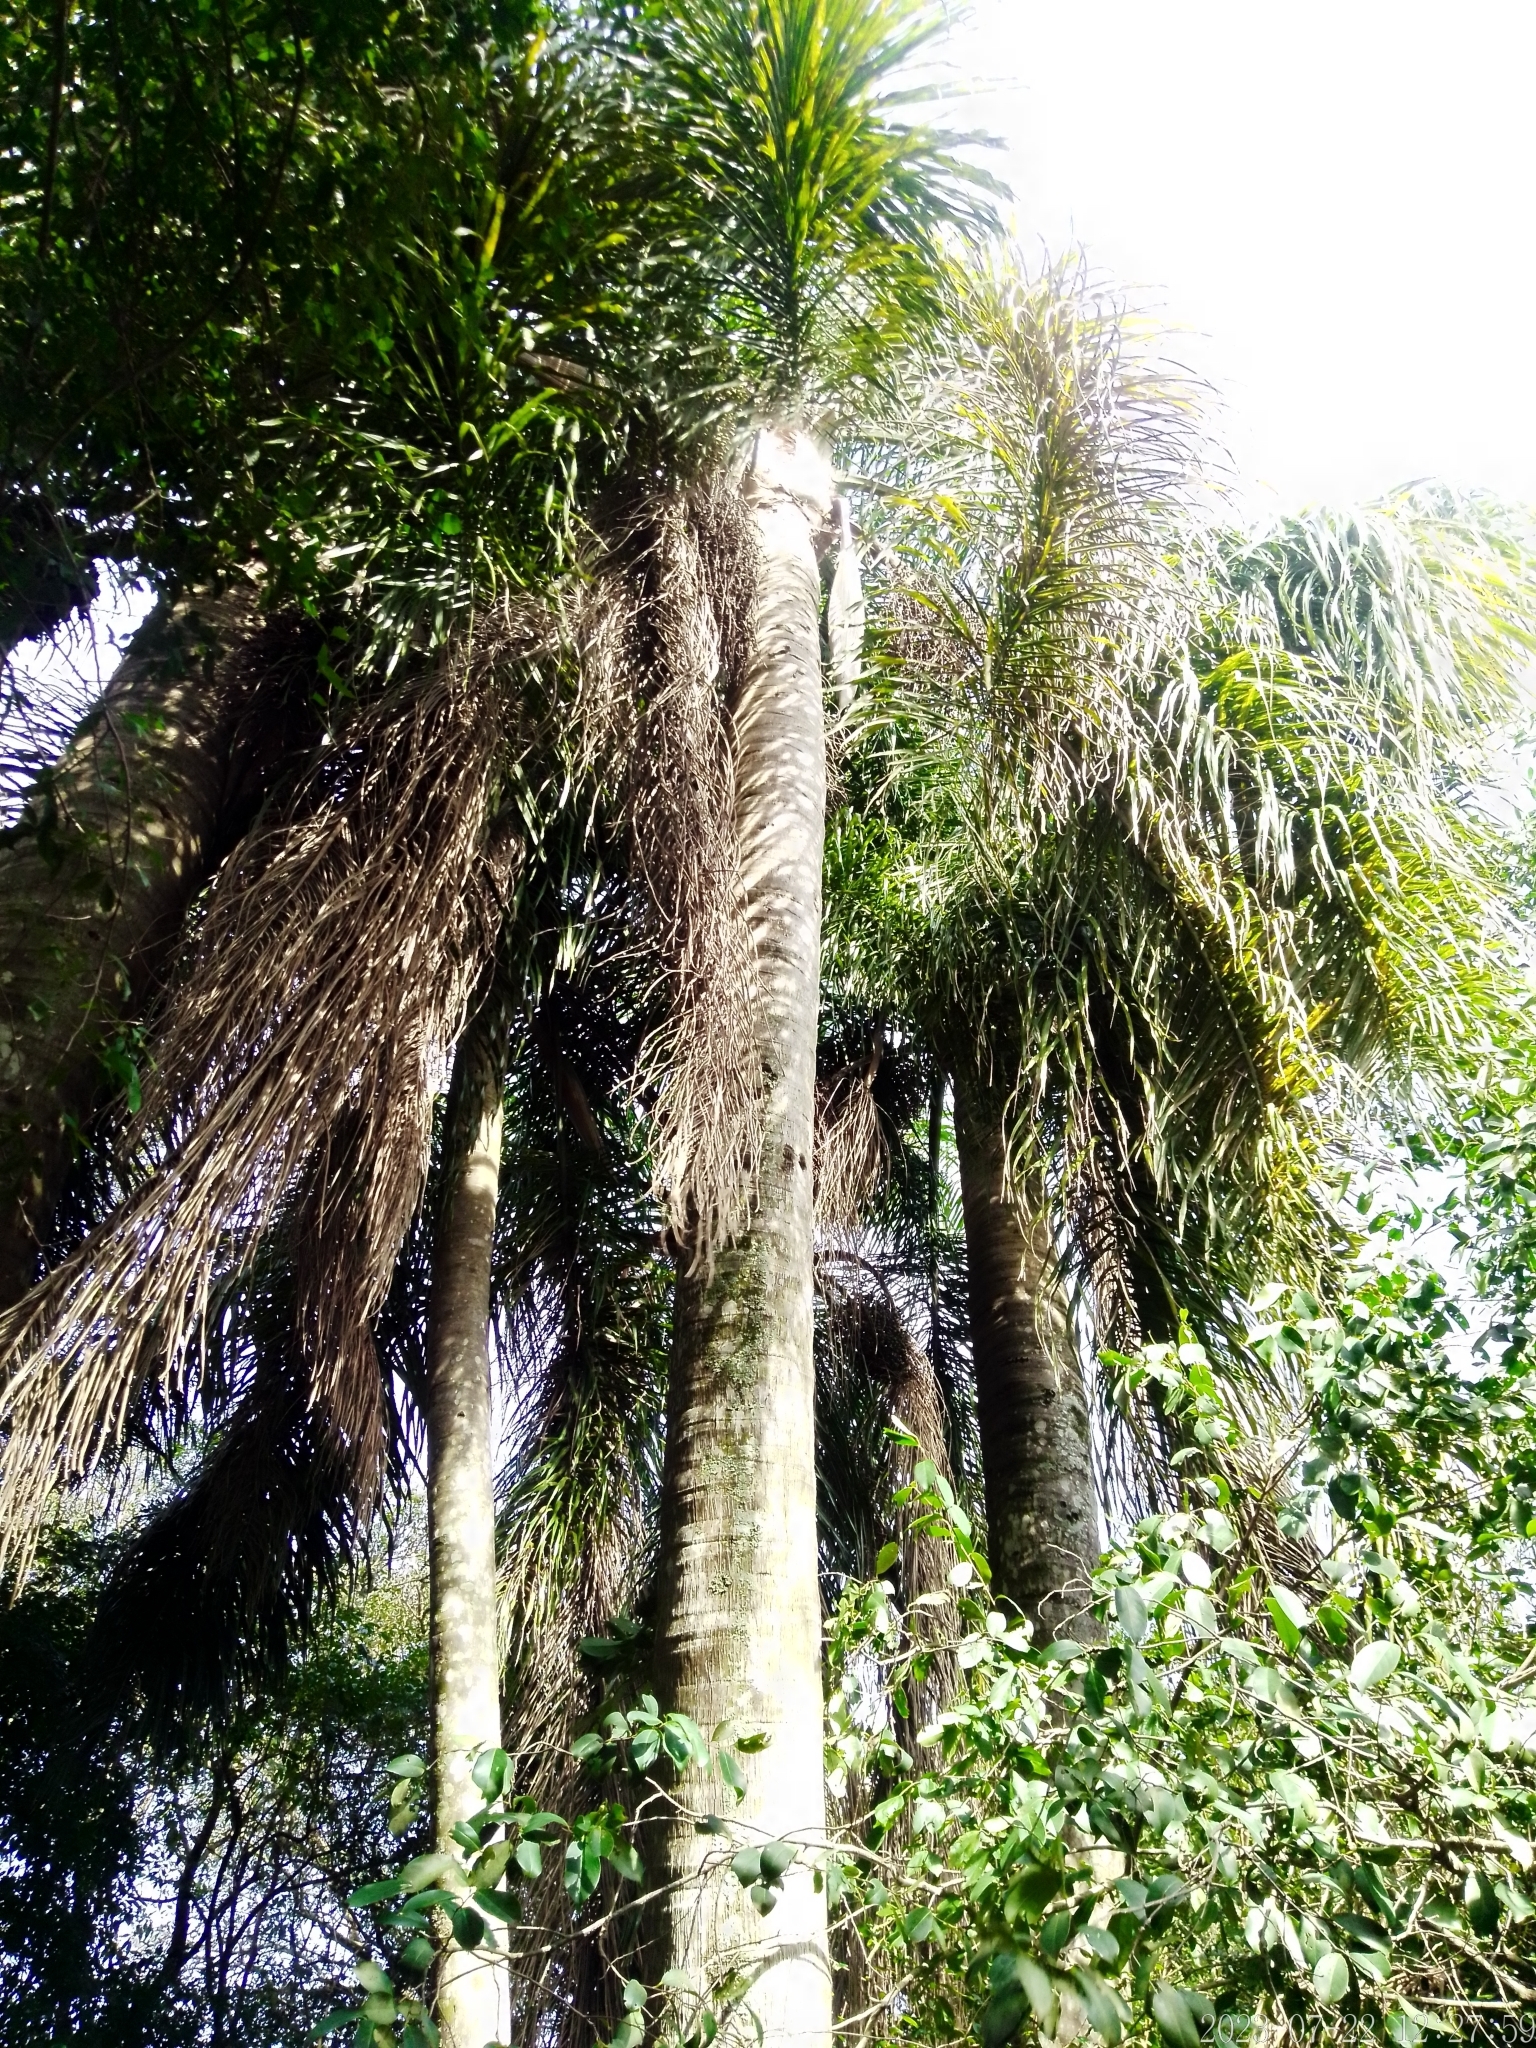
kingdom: Plantae
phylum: Tracheophyta
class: Liliopsida
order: Arecales
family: Arecaceae
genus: Syagrus
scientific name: Syagrus romanzoffiana
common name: Queen palm
